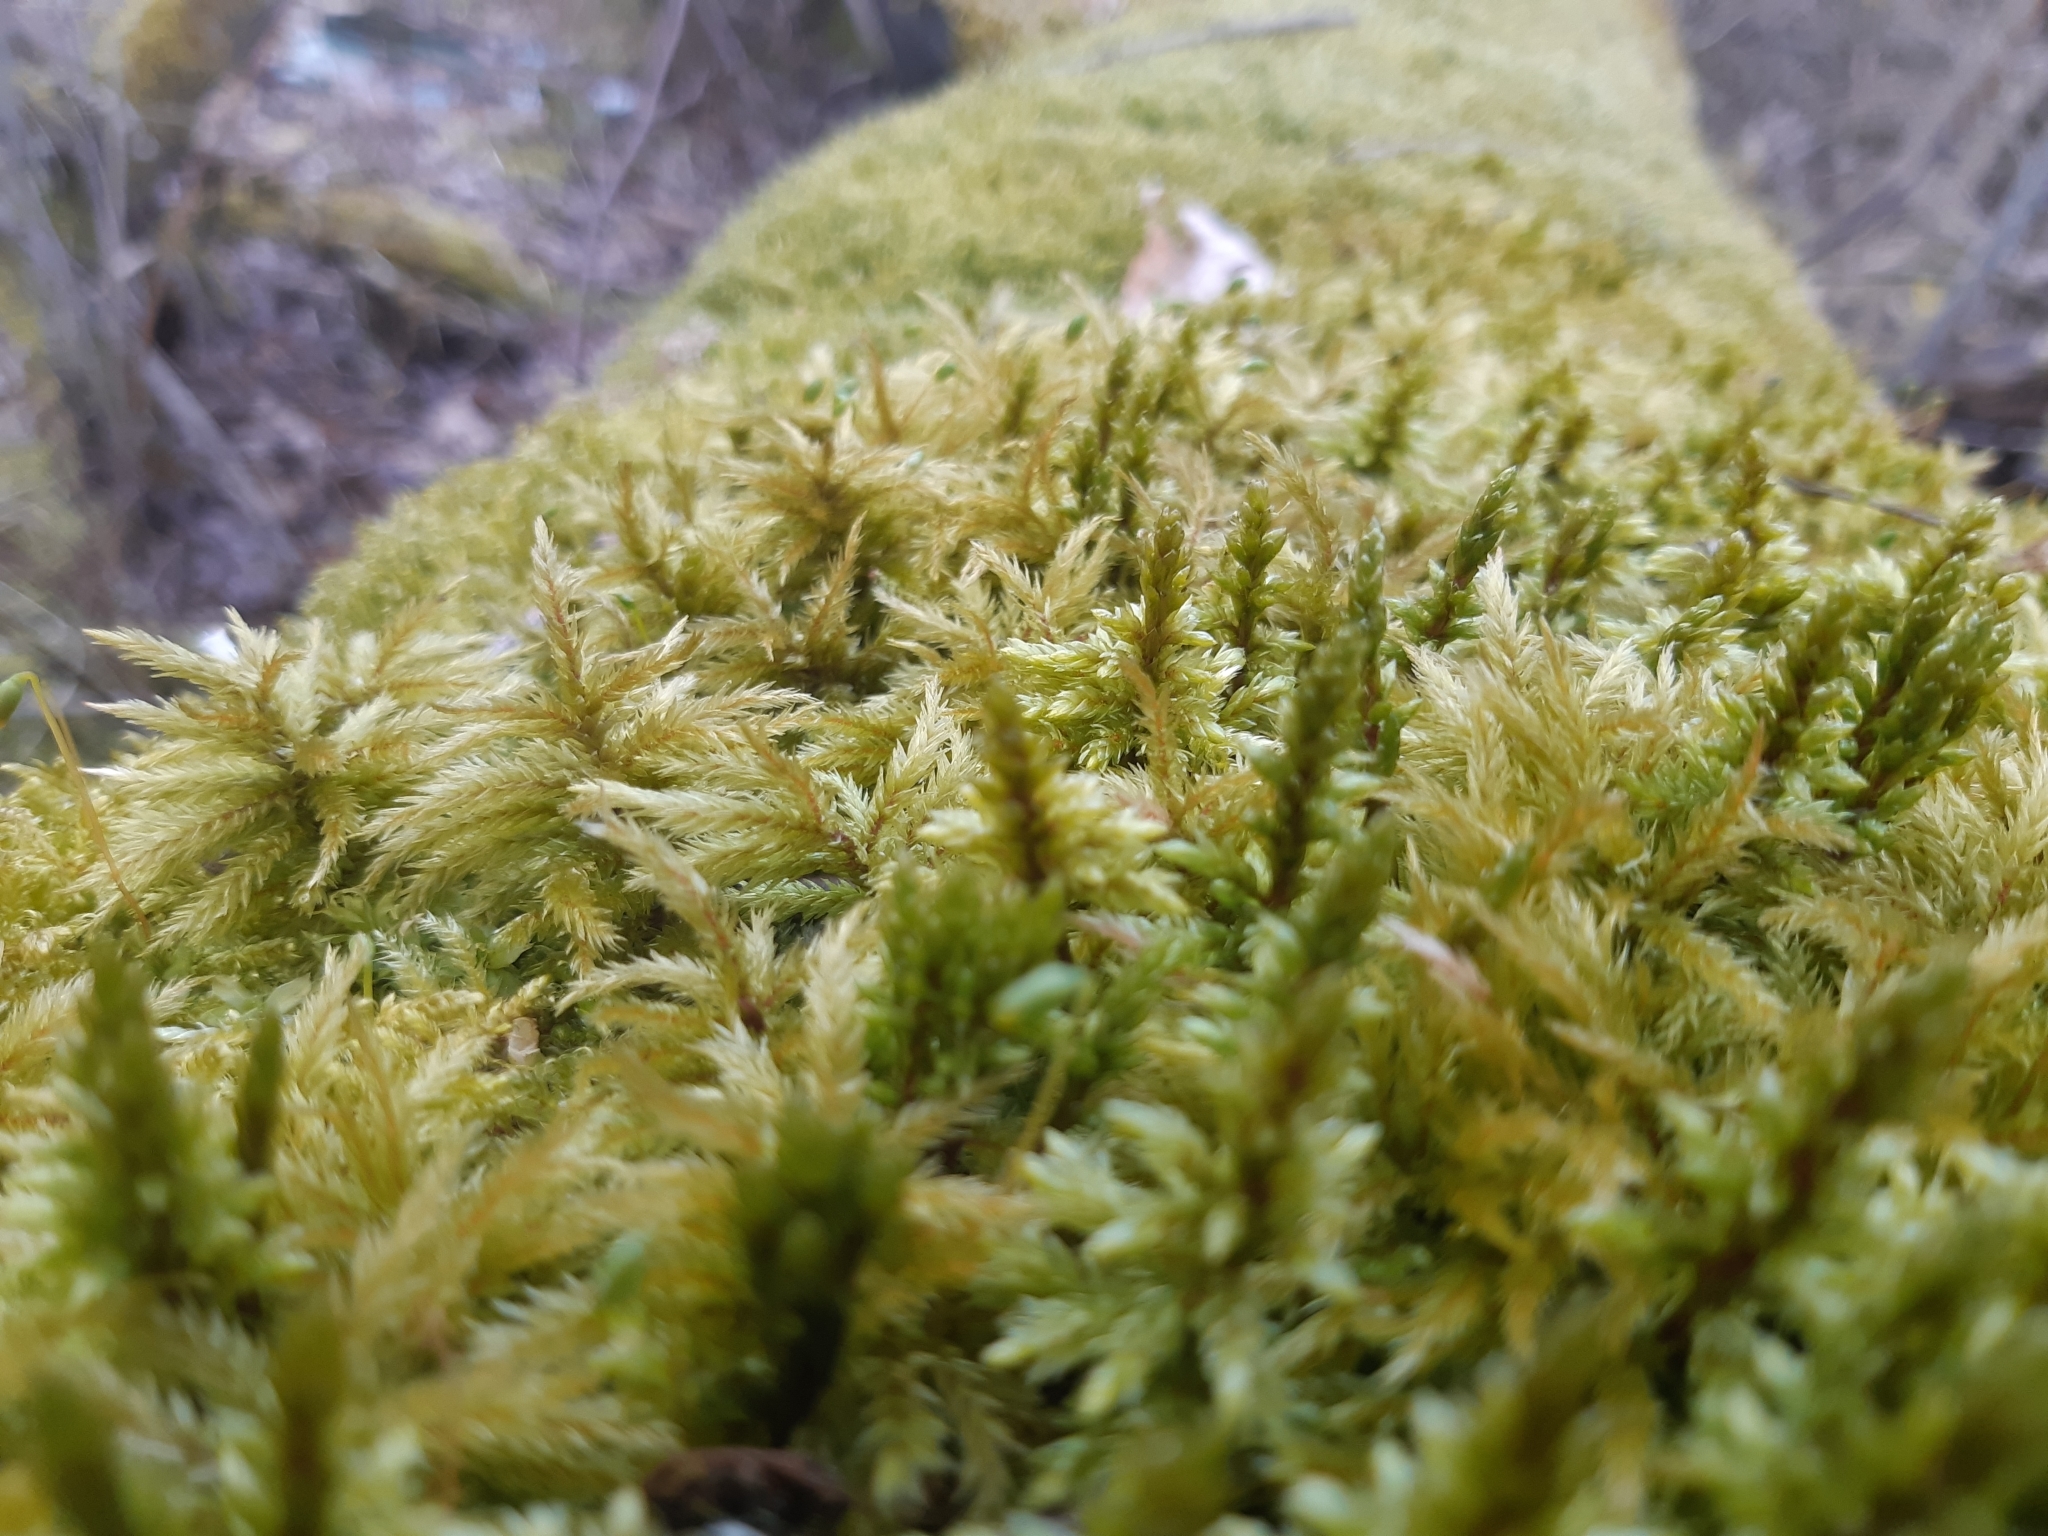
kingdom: Plantae
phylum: Bryophyta
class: Bryopsida
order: Hypnales
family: Hylocomiaceae
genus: Pleurozium
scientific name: Pleurozium schreberi
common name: Red-stemmed feather moss
